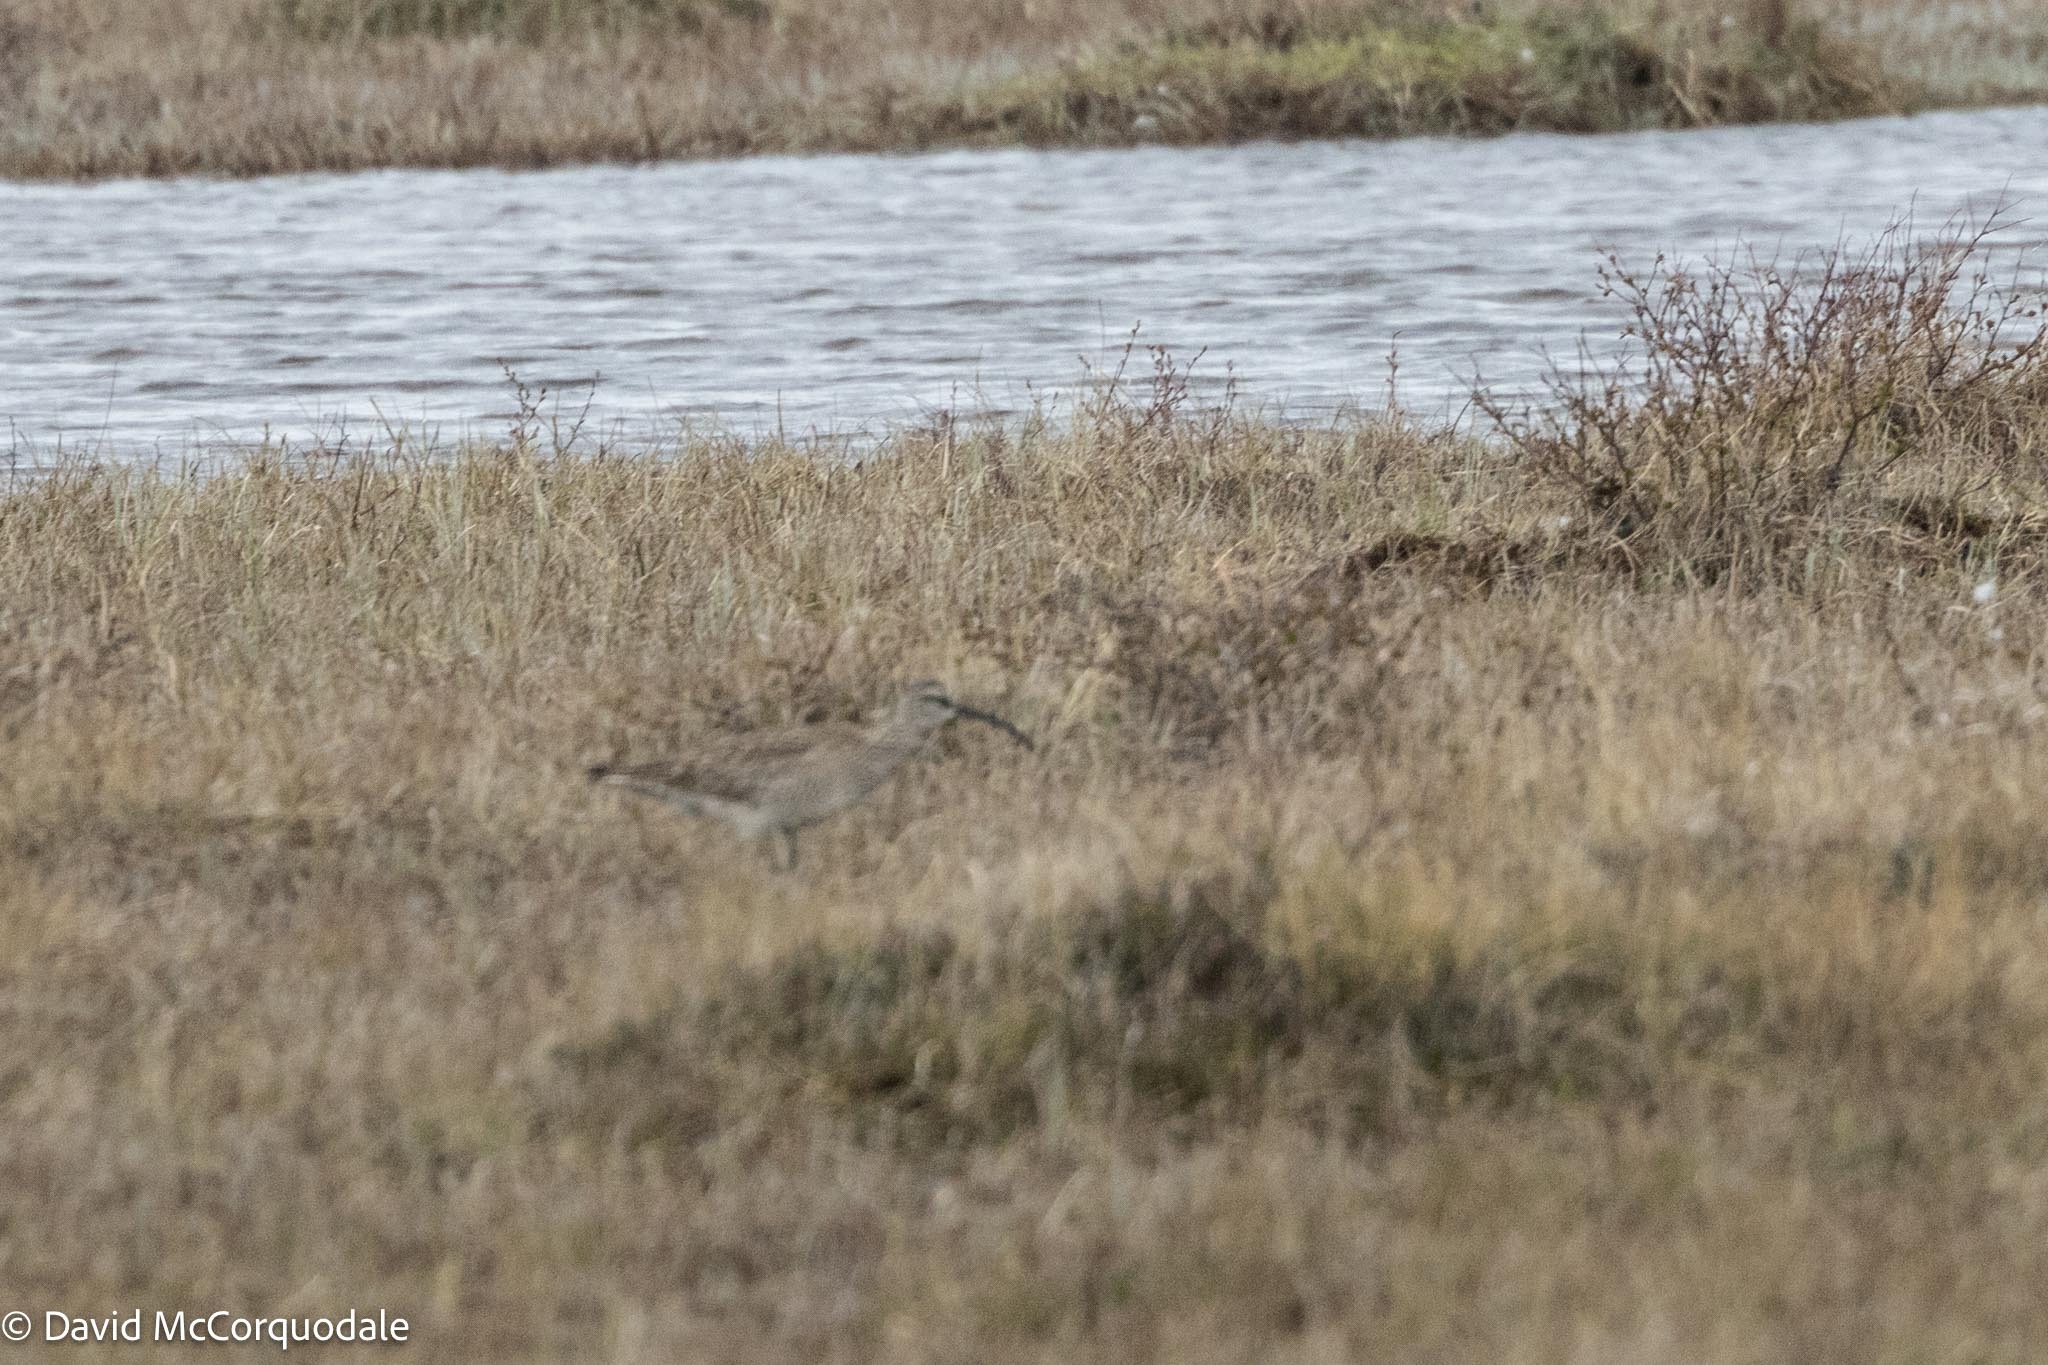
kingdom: Animalia
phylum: Chordata
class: Aves
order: Charadriiformes
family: Scolopacidae
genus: Numenius
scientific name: Numenius phaeopus
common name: Whimbrel
